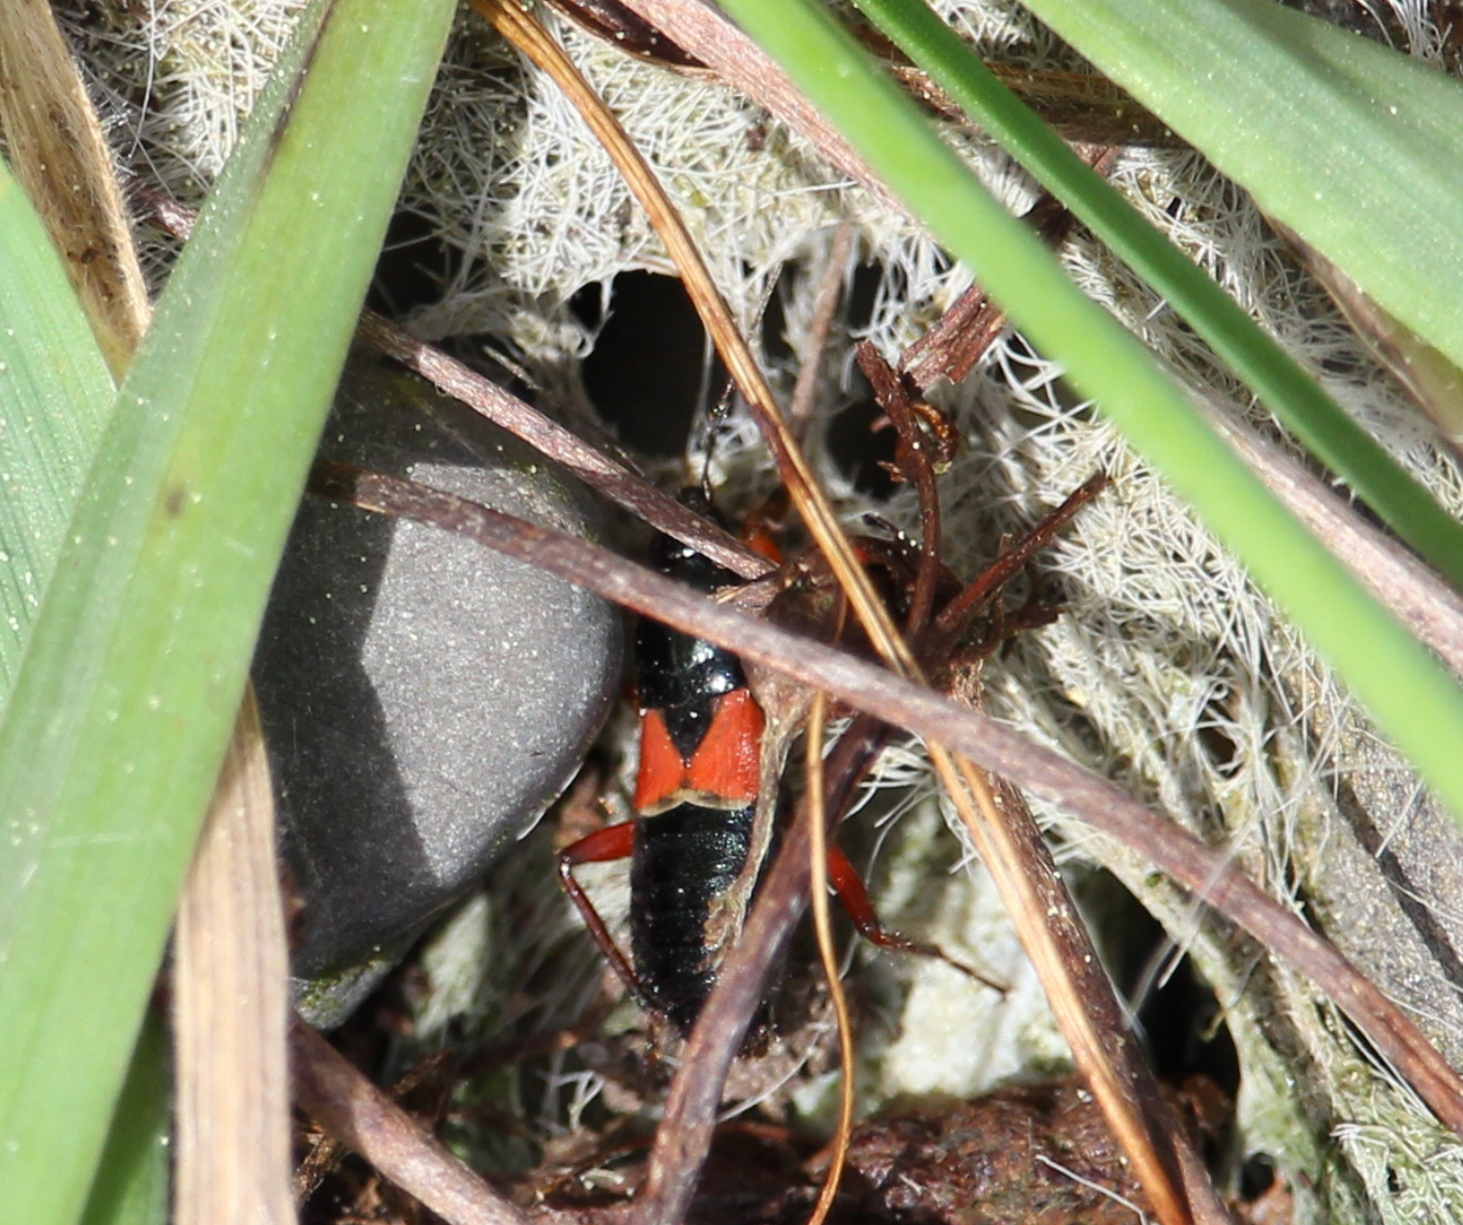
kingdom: Animalia
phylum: Arthropoda
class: Insecta
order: Hemiptera
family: Nabidae
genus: Prostemma
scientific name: Prostemma guttula
